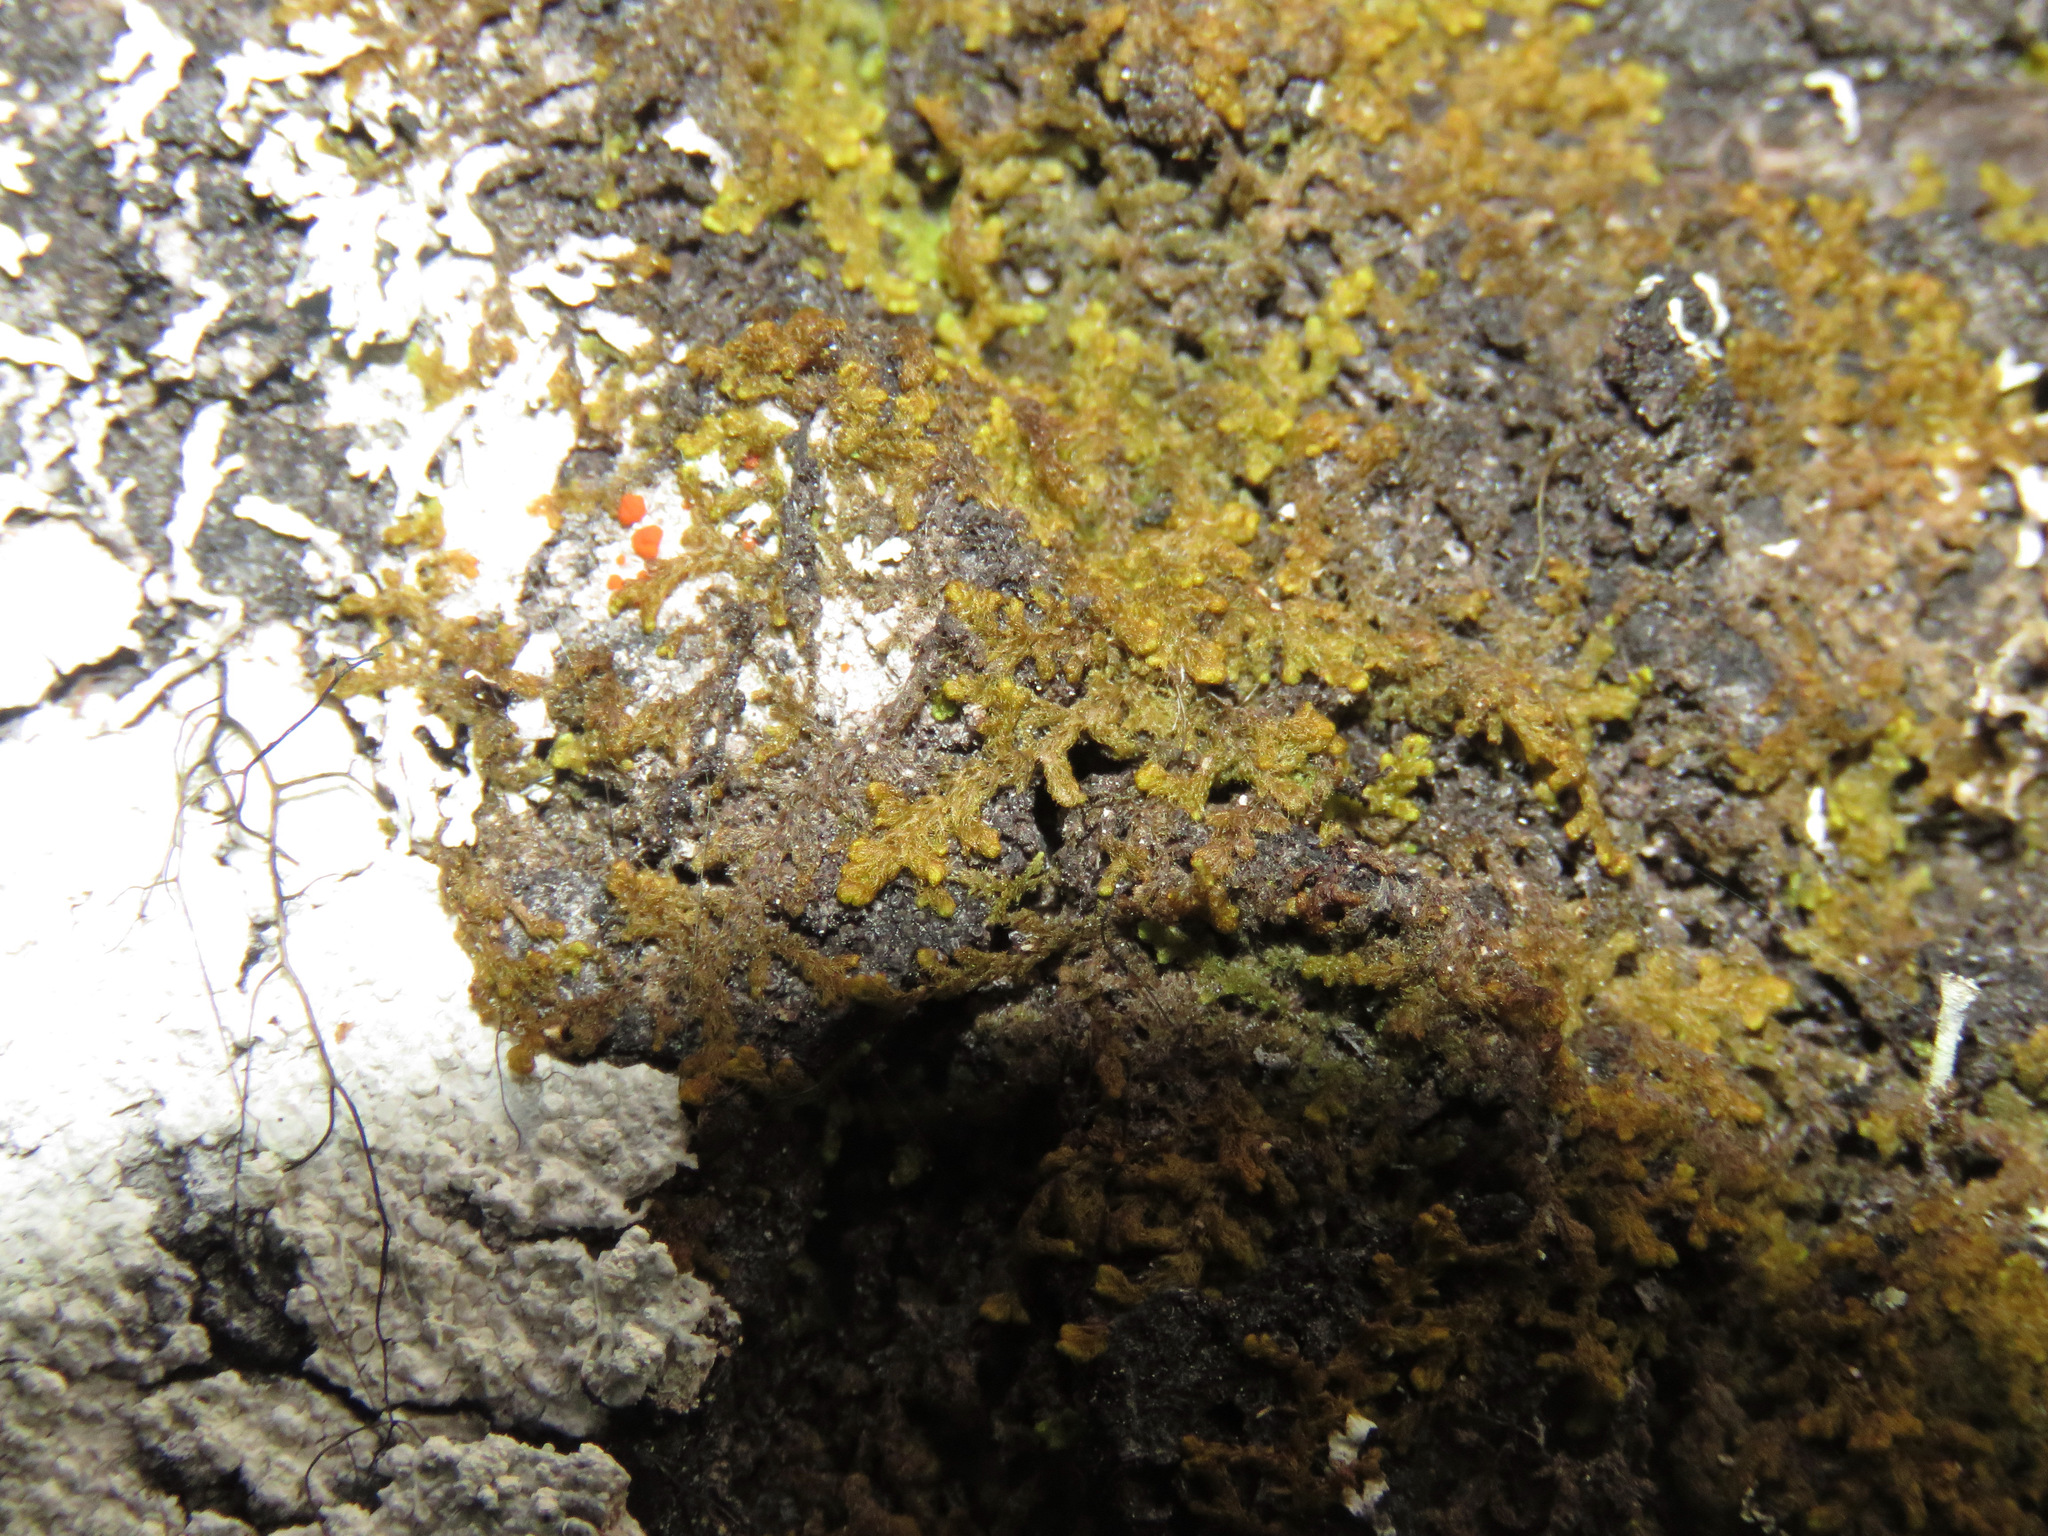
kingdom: Plantae
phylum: Marchantiophyta
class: Jungermanniopsida
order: Ptilidiales
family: Ptilidiaceae
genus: Ptilidium
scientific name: Ptilidium pulcherrimum
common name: Tree fringewort
